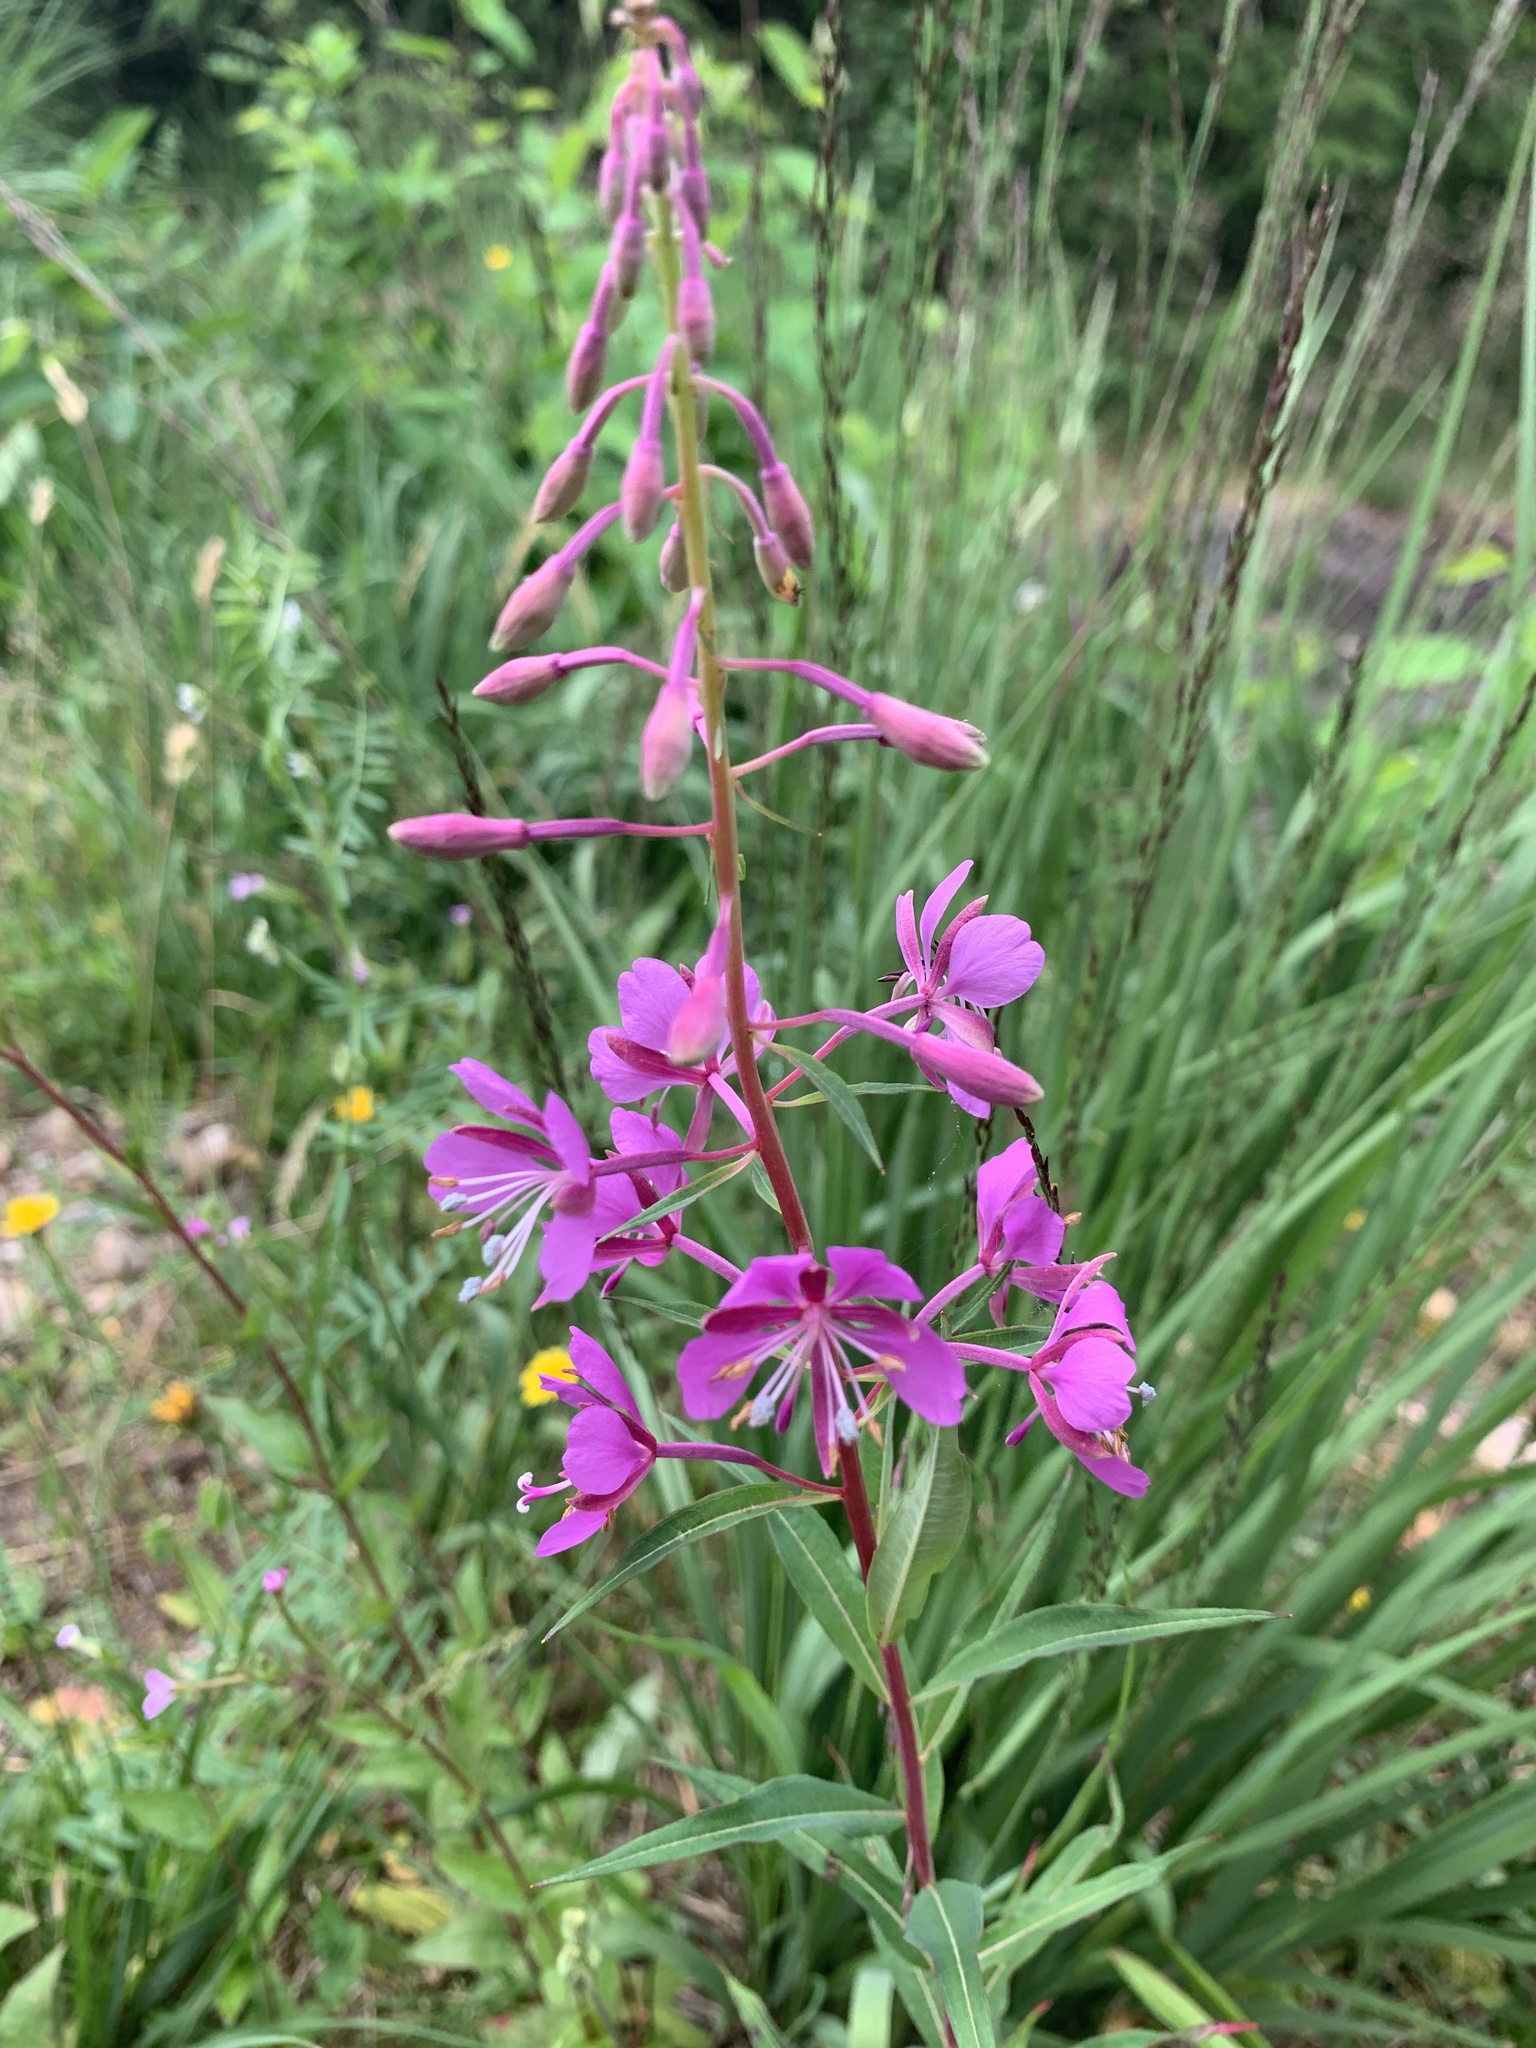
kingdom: Plantae
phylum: Tracheophyta
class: Magnoliopsida
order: Myrtales
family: Onagraceae
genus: Chamaenerion
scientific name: Chamaenerion angustifolium
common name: Fireweed
